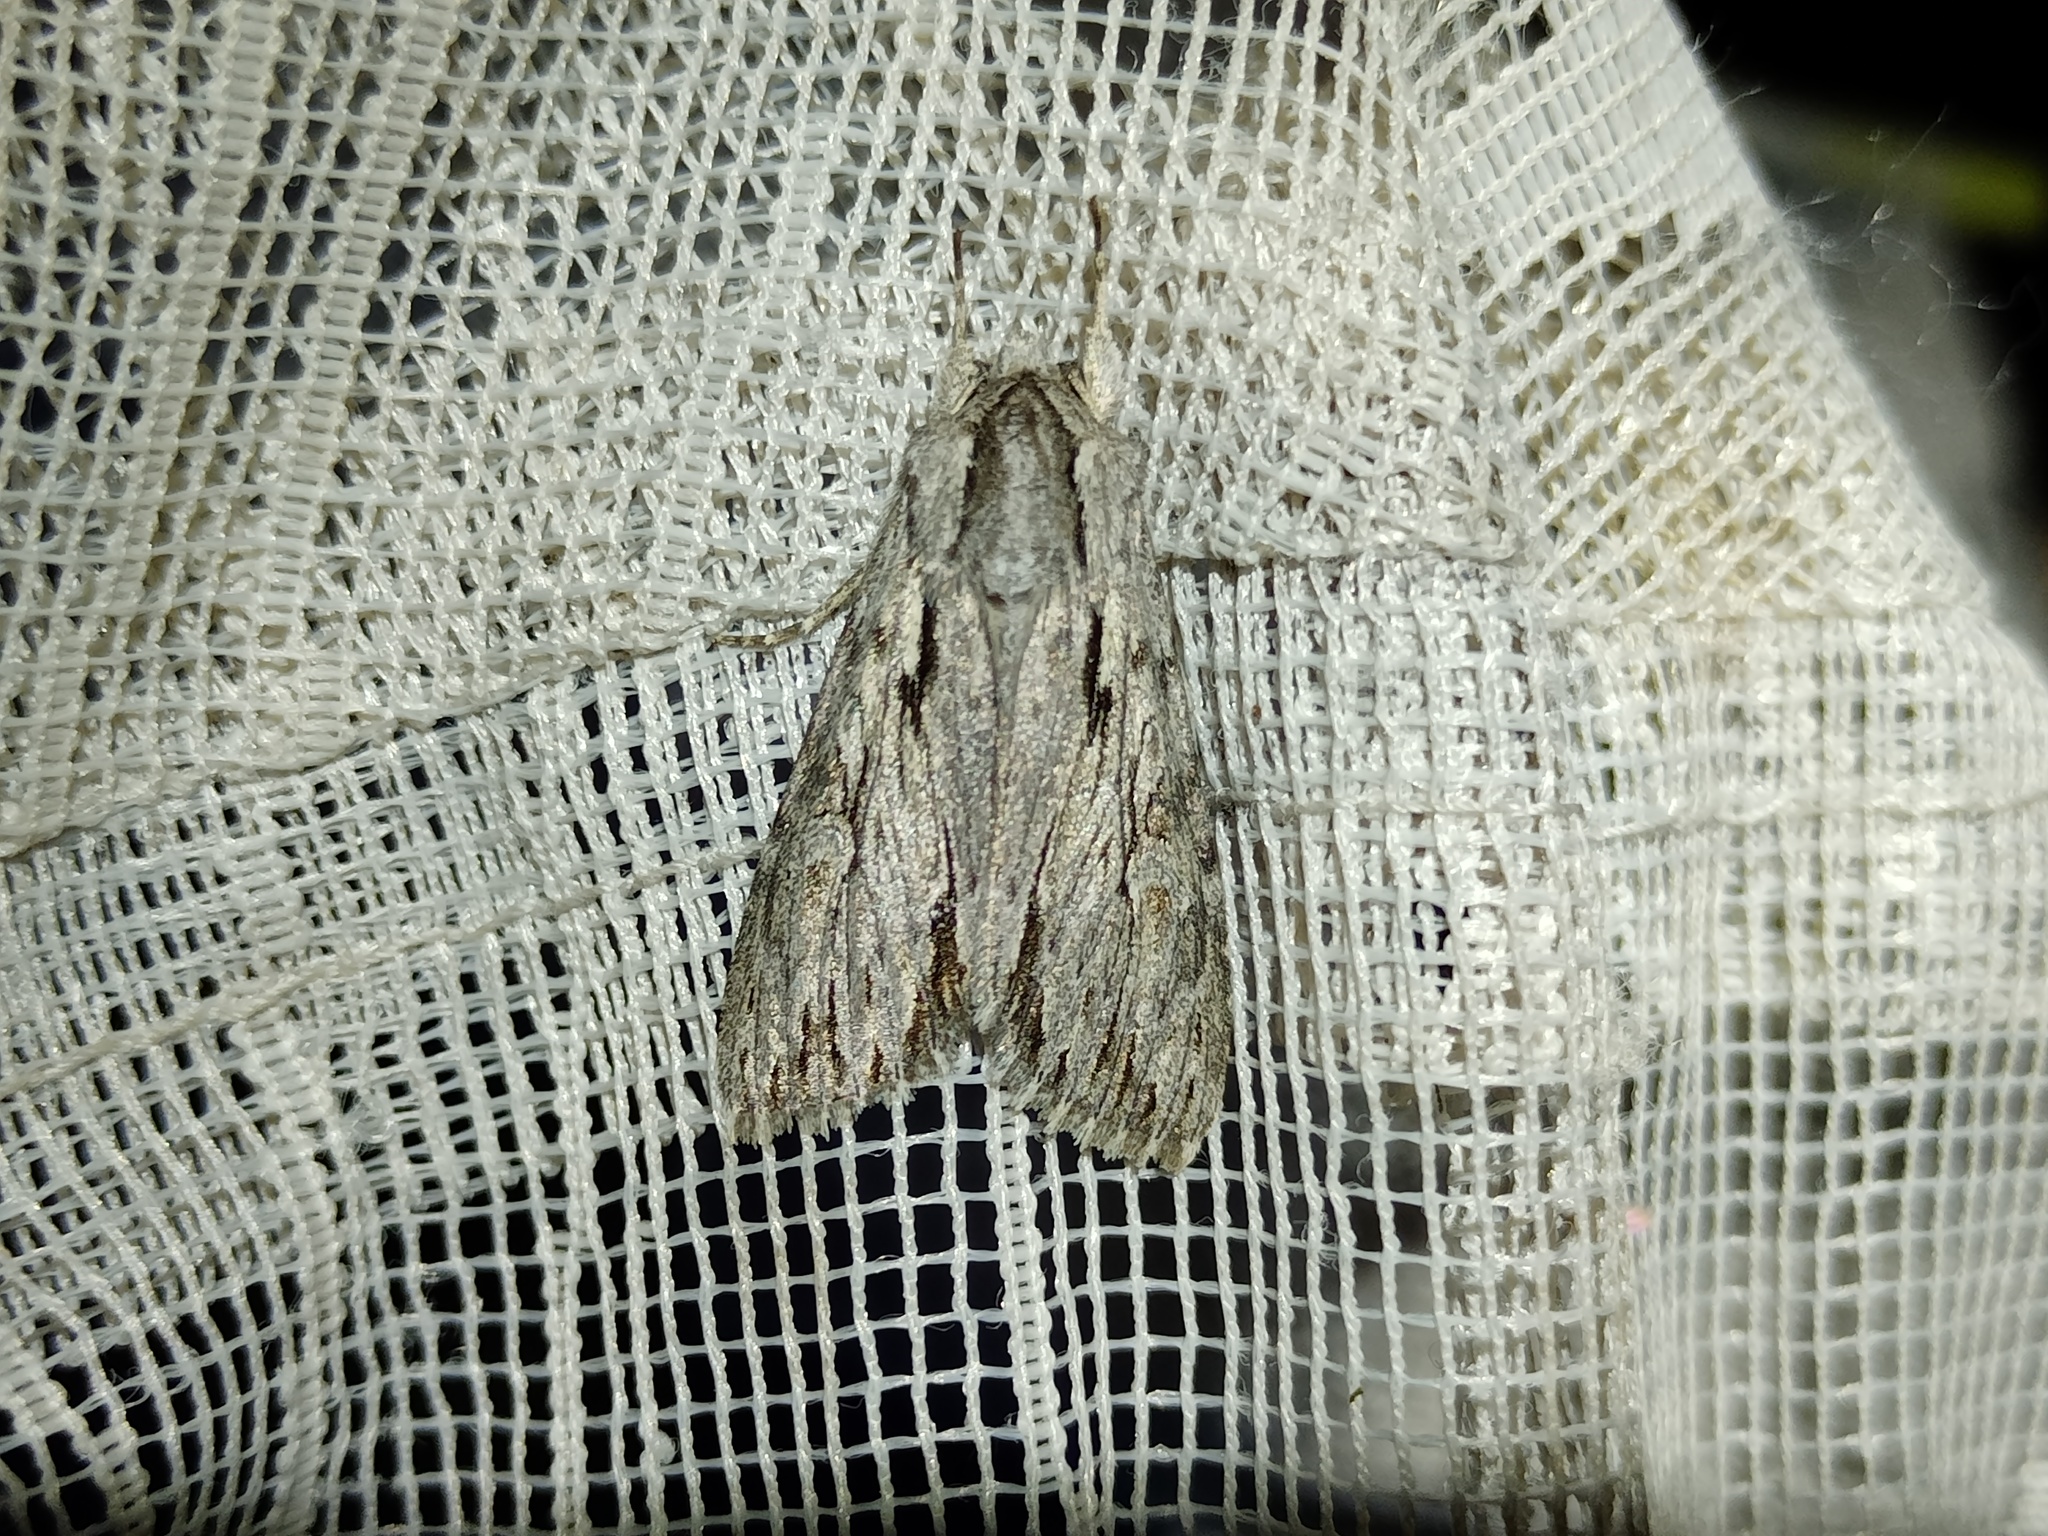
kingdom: Animalia
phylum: Arthropoda
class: Insecta
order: Lepidoptera
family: Noctuidae
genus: Auchmis
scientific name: Auchmis detersa
